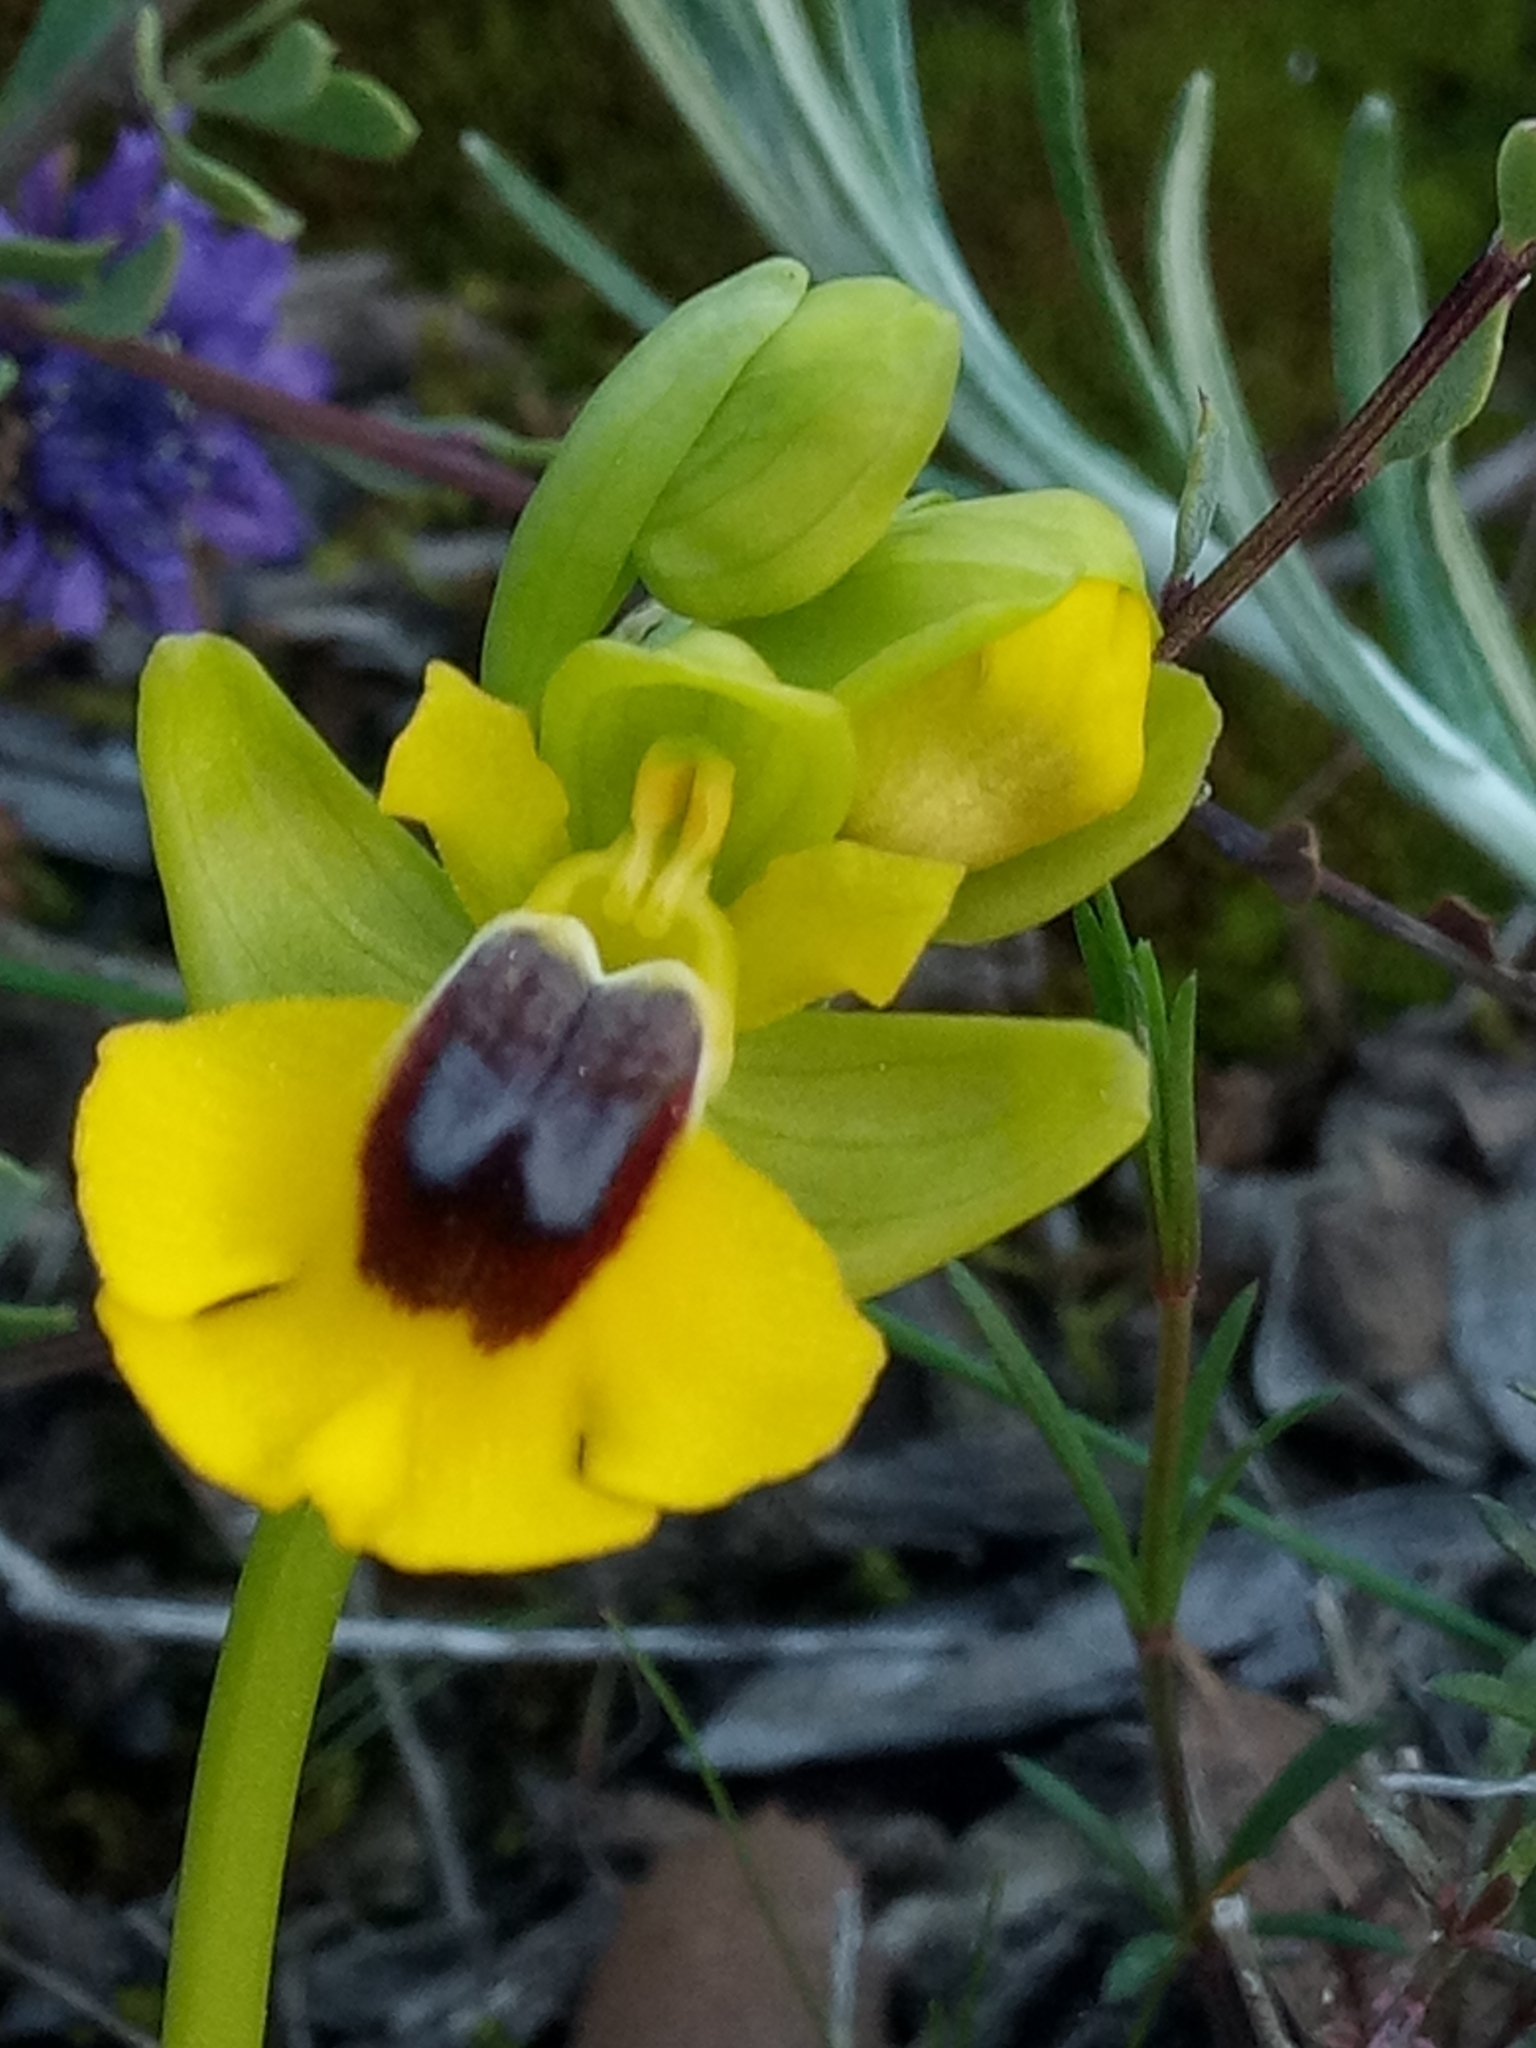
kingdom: Plantae
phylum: Tracheophyta
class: Liliopsida
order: Asparagales
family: Orchidaceae
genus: Ophrys
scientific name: Ophrys lutea
